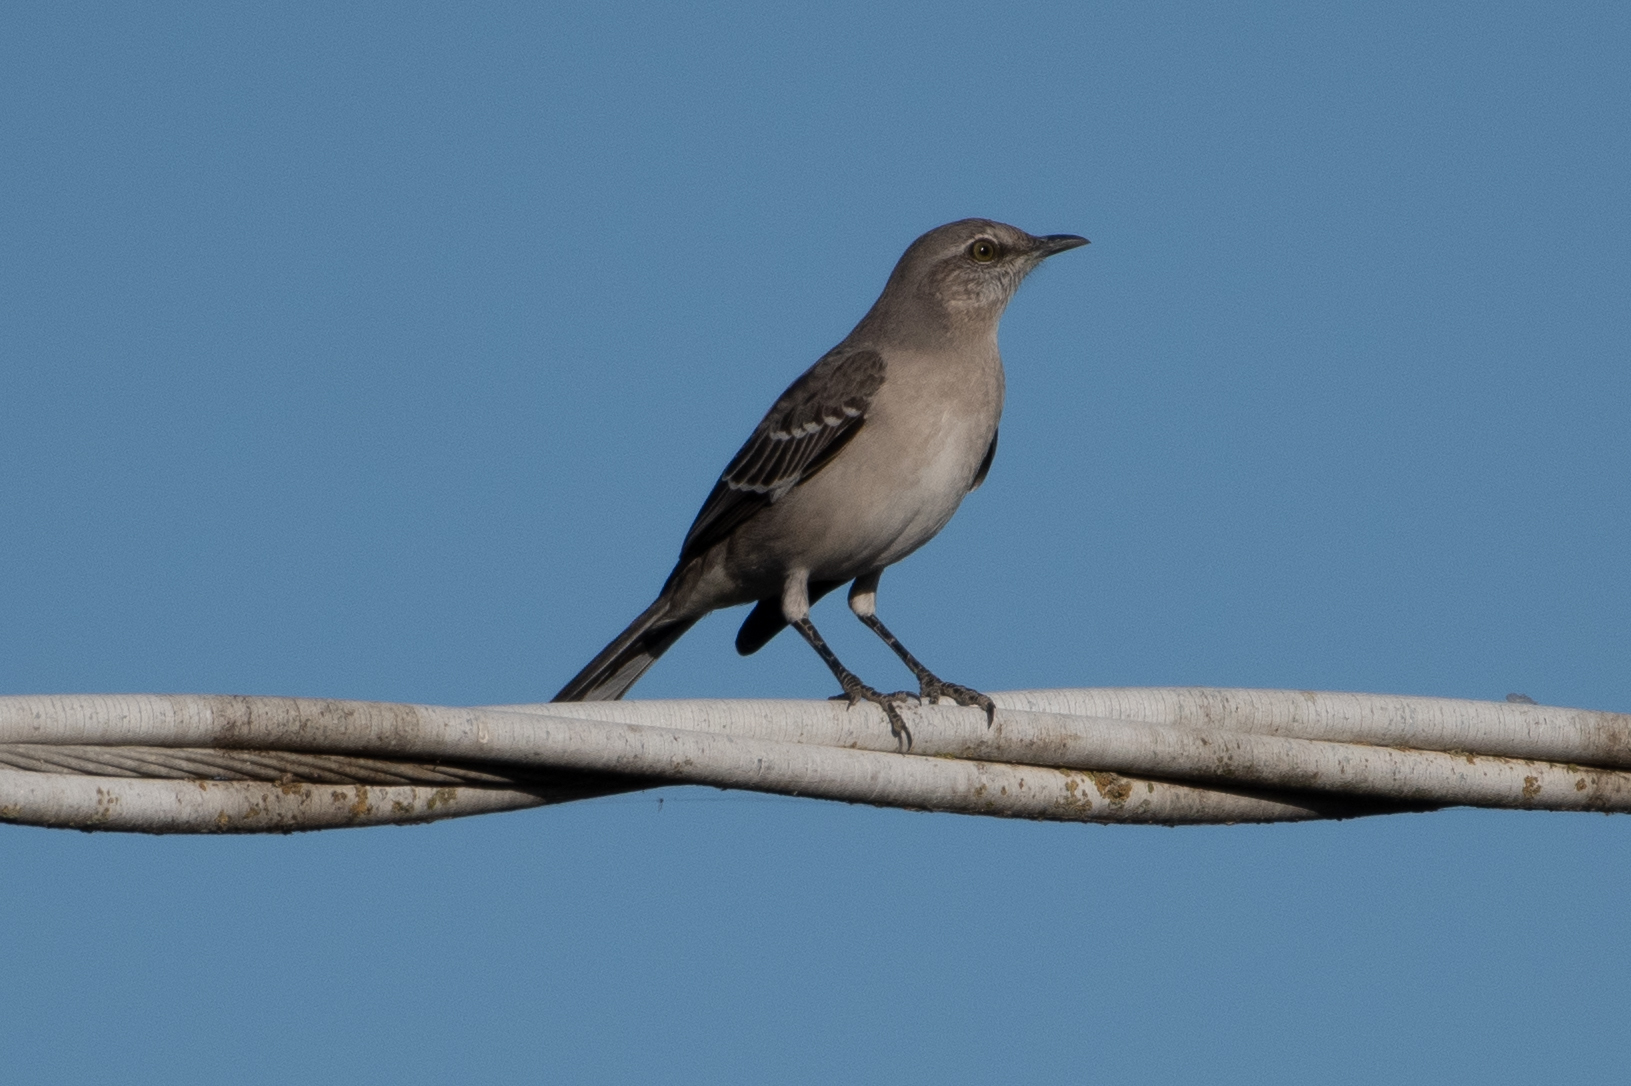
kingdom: Animalia
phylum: Chordata
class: Aves
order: Passeriformes
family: Mimidae
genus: Mimus
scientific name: Mimus polyglottos
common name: Northern mockingbird
